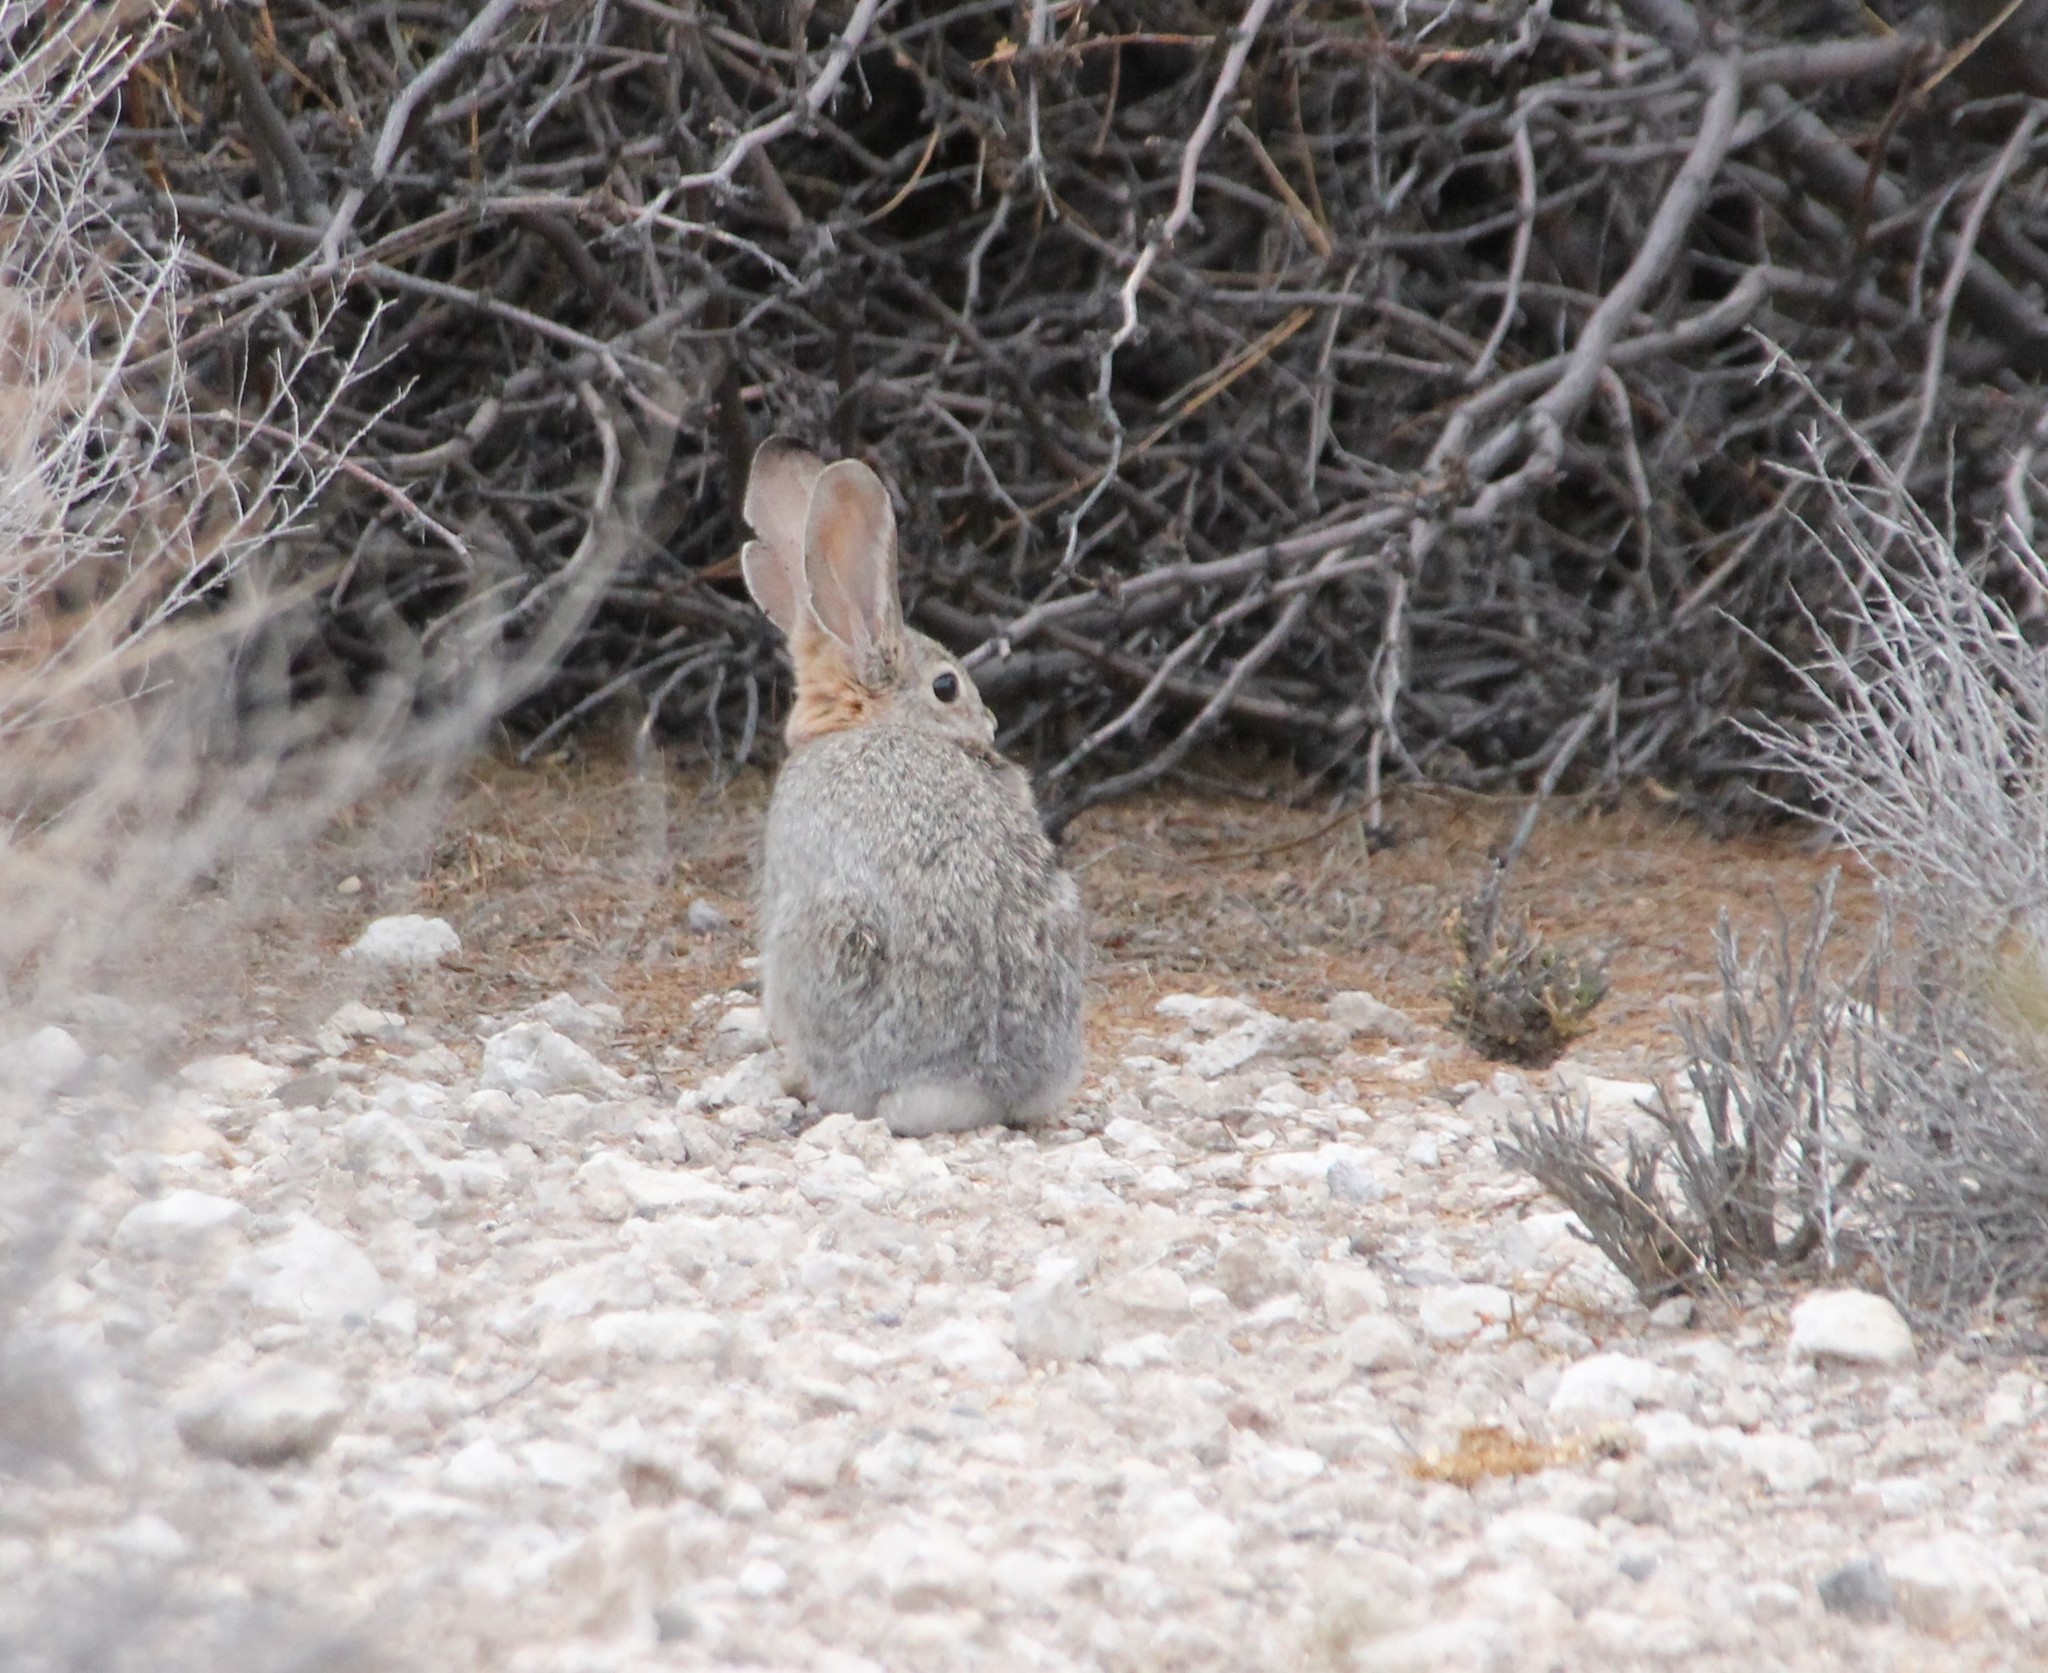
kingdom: Animalia
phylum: Chordata
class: Mammalia
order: Lagomorpha
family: Leporidae
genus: Sylvilagus
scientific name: Sylvilagus audubonii
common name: Desert cottontail
